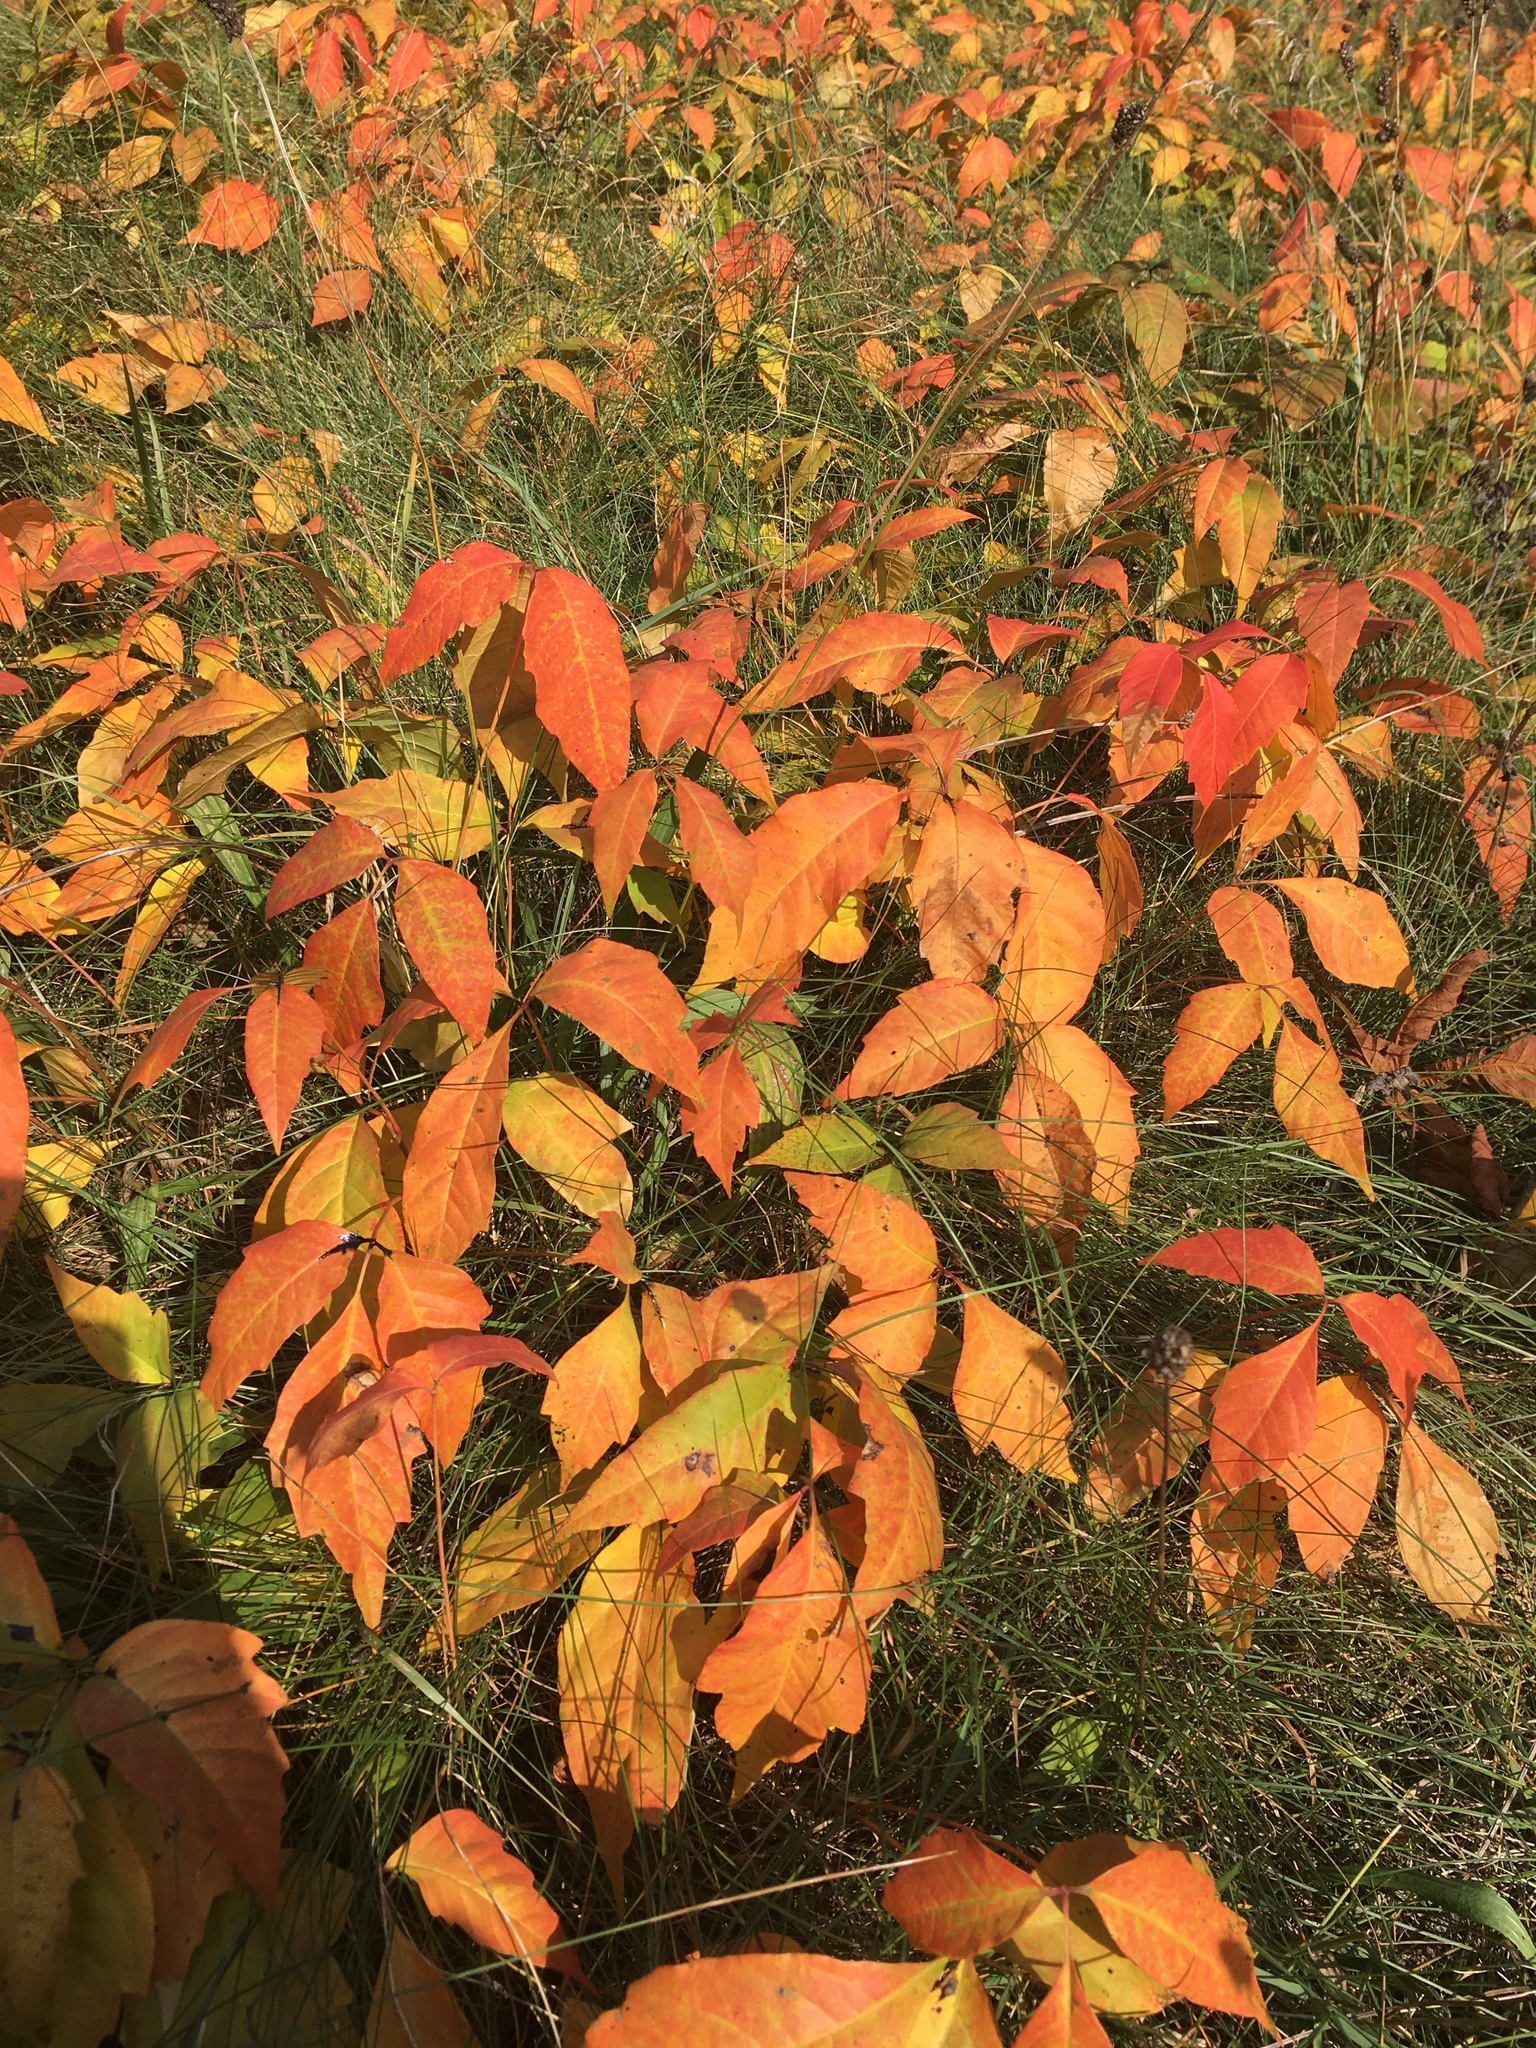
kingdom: Plantae
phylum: Tracheophyta
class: Magnoliopsida
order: Sapindales
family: Anacardiaceae
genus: Toxicodendron
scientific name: Toxicodendron radicans
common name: Poison ivy
